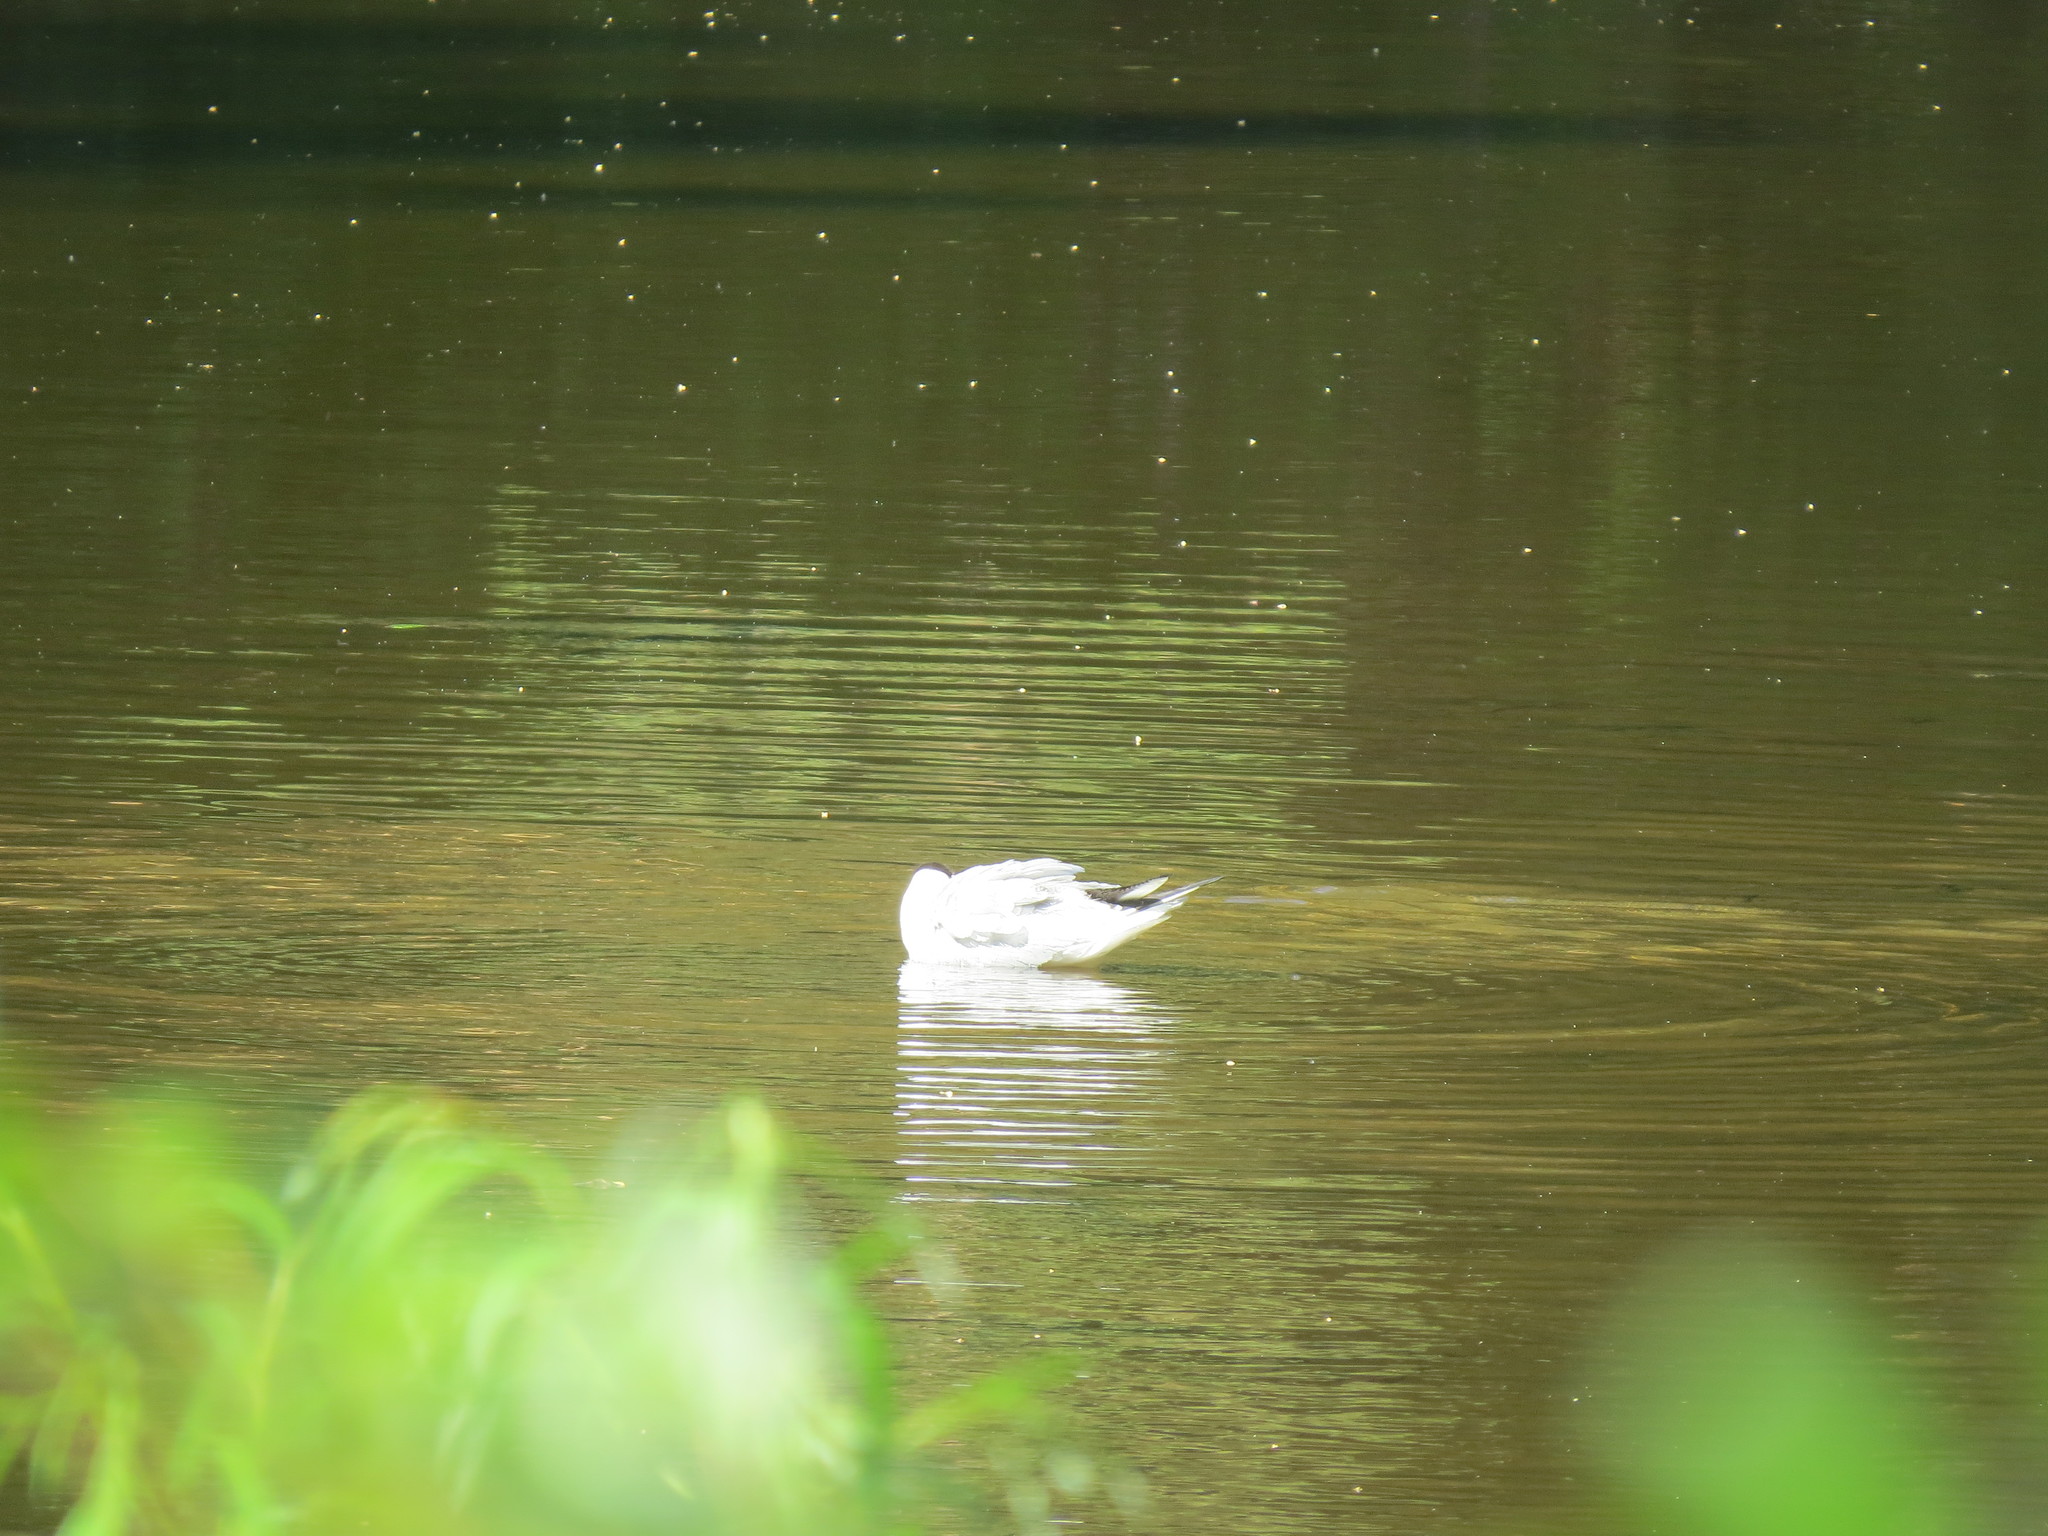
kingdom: Animalia
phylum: Chordata
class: Aves
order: Charadriiformes
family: Laridae
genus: Chroicocephalus
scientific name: Chroicocephalus ridibundus
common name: Black-headed gull
